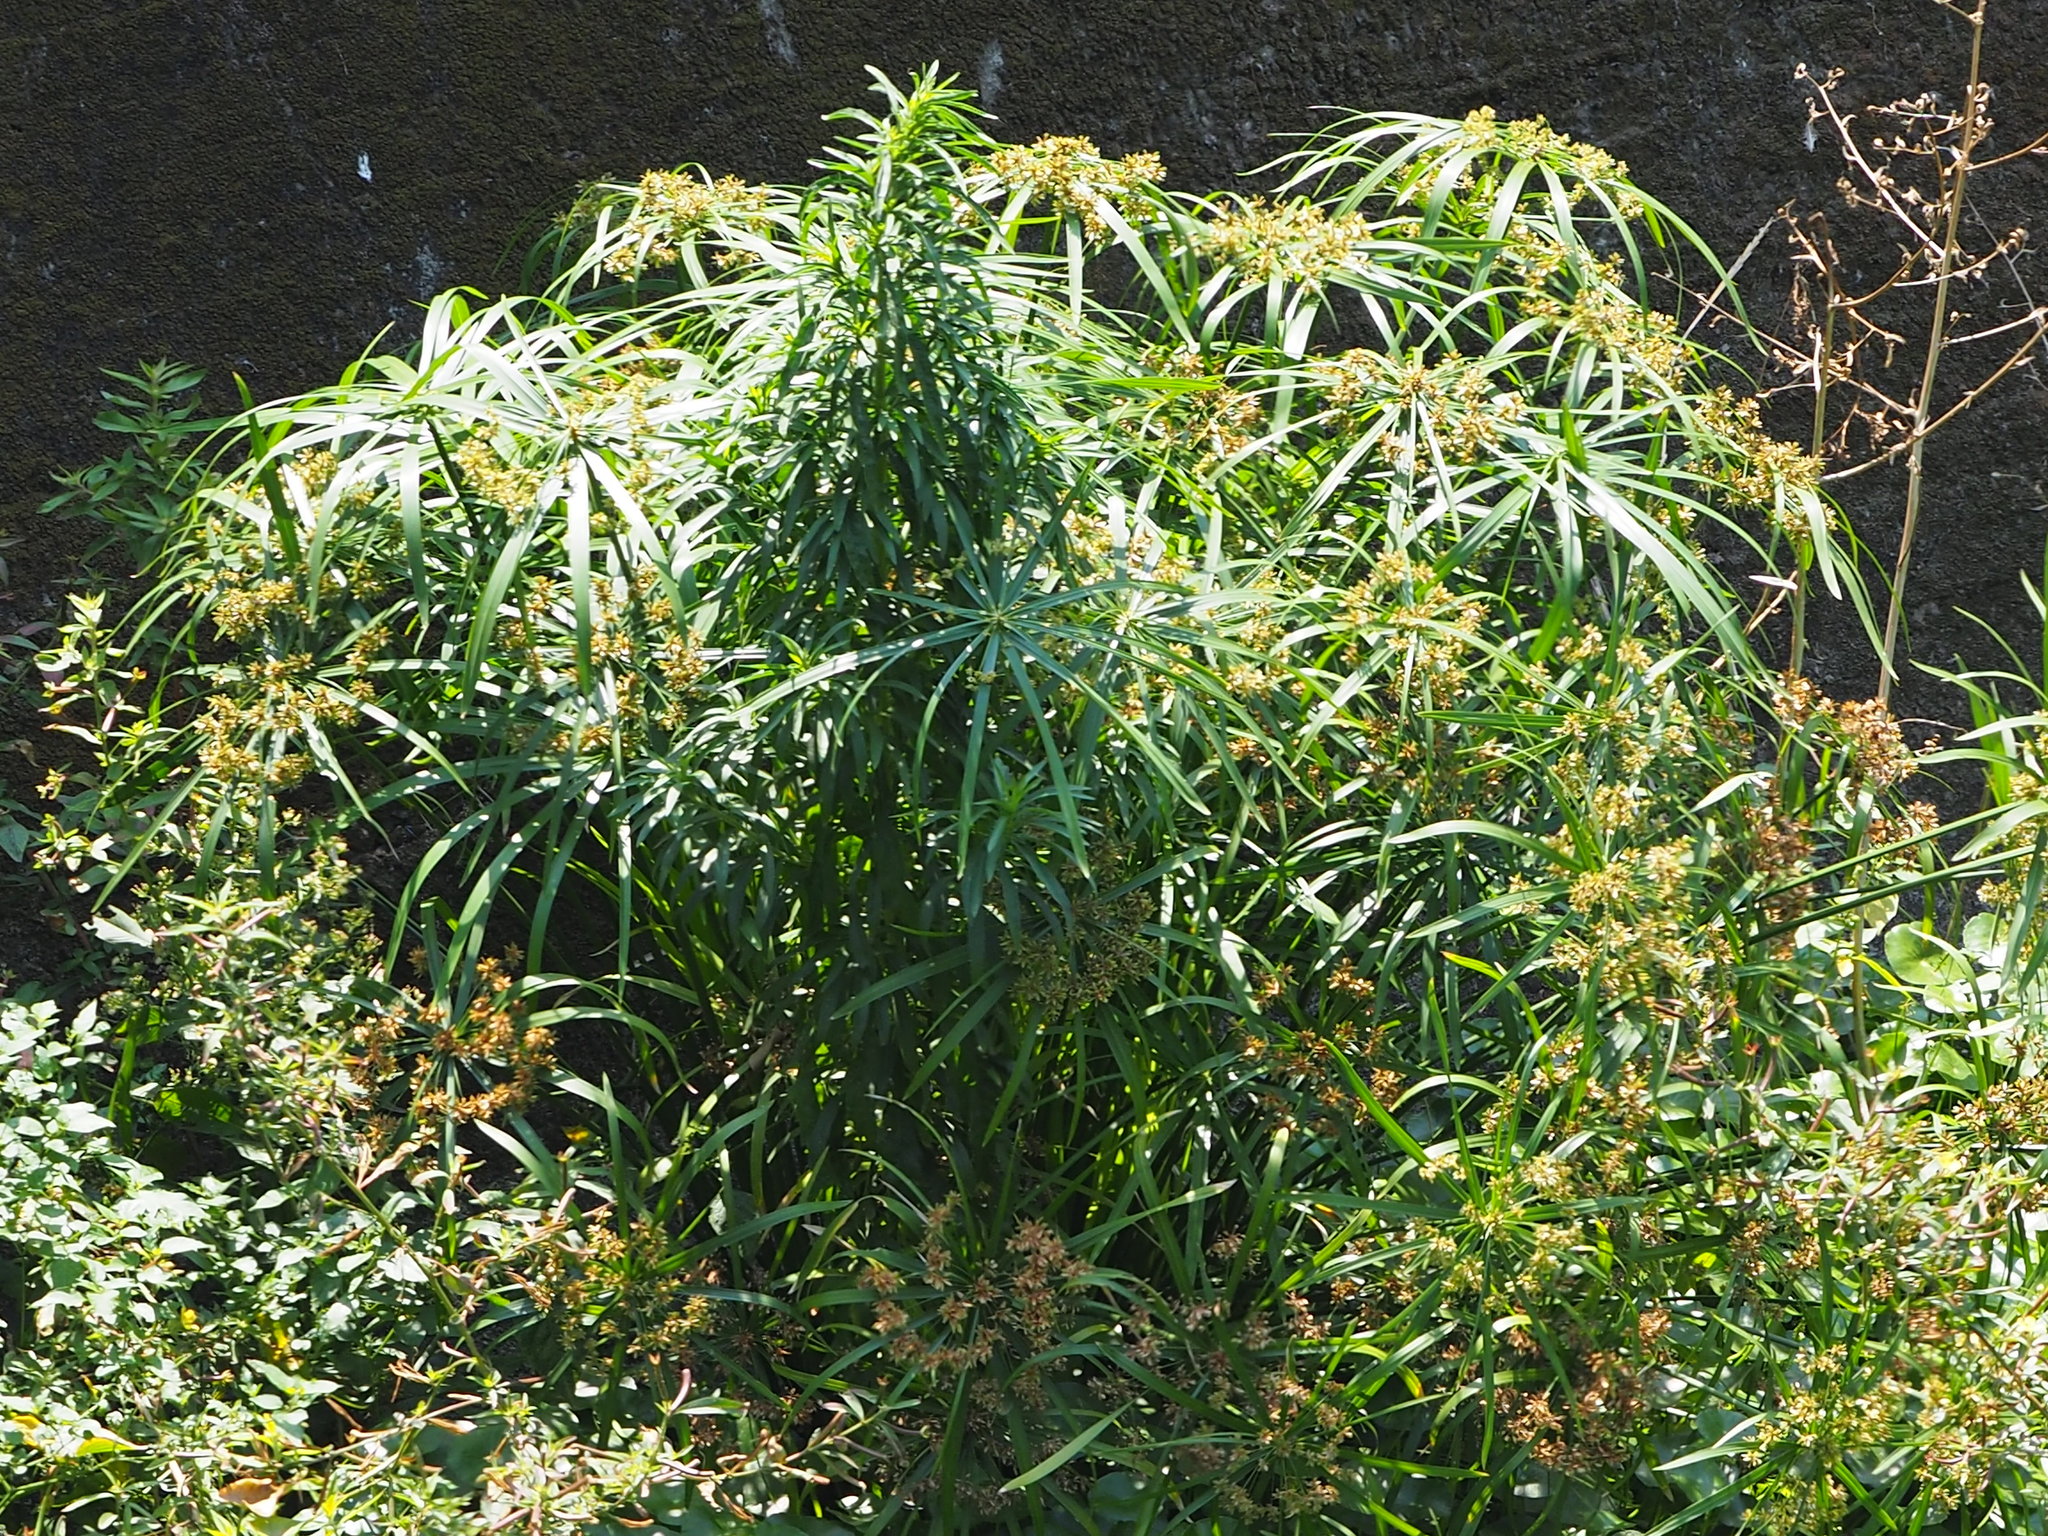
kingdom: Plantae
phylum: Tracheophyta
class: Liliopsida
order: Poales
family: Cyperaceae
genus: Cyperus
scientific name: Cyperus alternifolius
